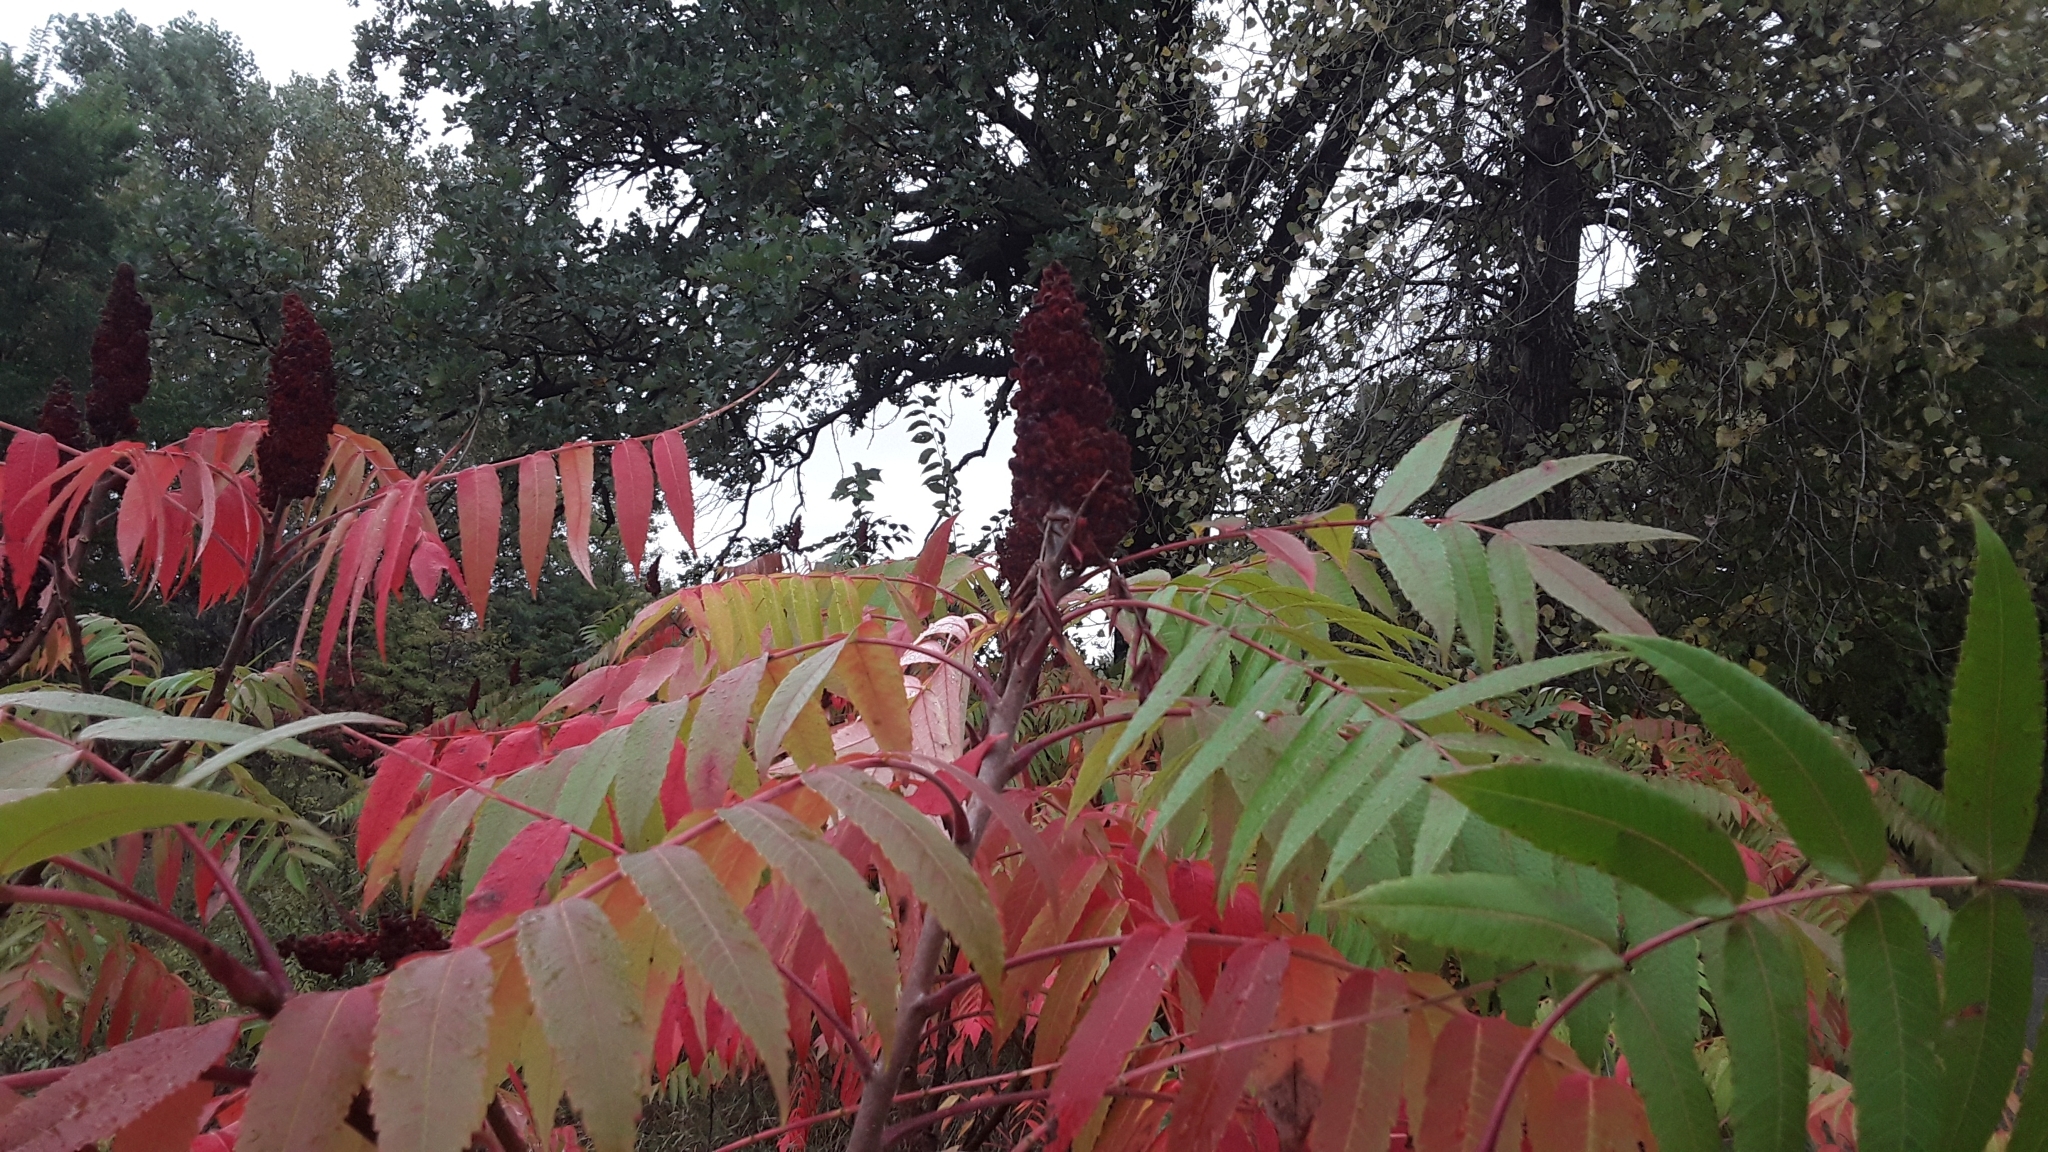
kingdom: Plantae
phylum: Tracheophyta
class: Magnoliopsida
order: Sapindales
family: Anacardiaceae
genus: Rhus
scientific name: Rhus glabra
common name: Scarlet sumac
